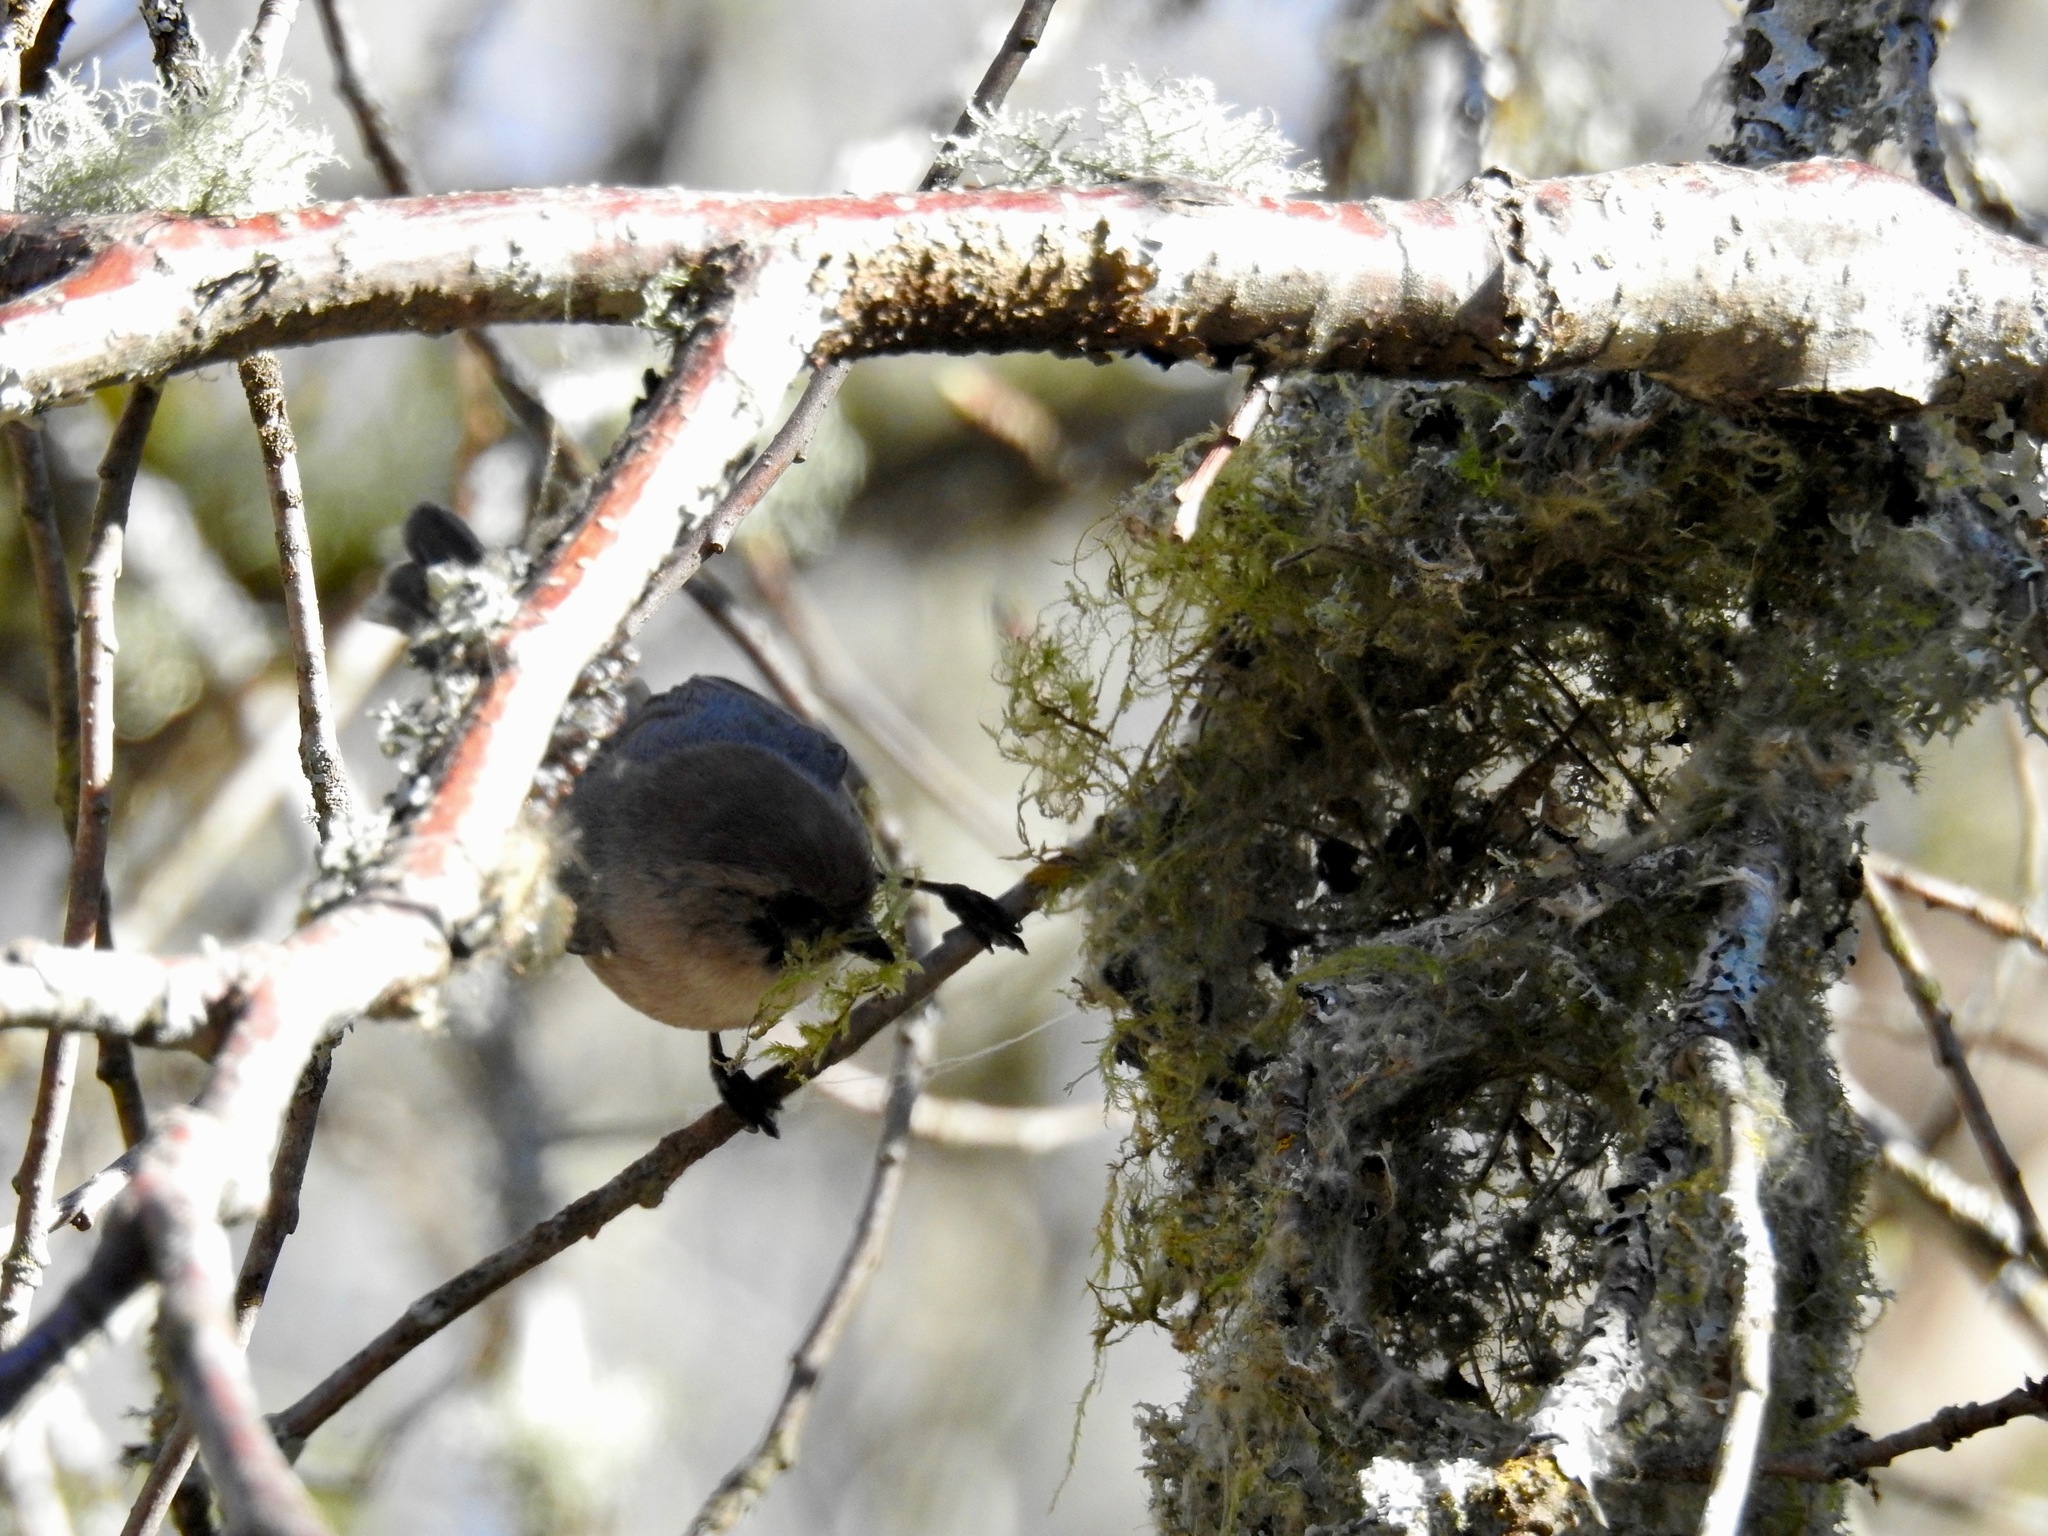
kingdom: Animalia
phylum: Chordata
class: Aves
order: Passeriformes
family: Aegithalidae
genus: Psaltriparus
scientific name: Psaltriparus minimus
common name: American bushtit
